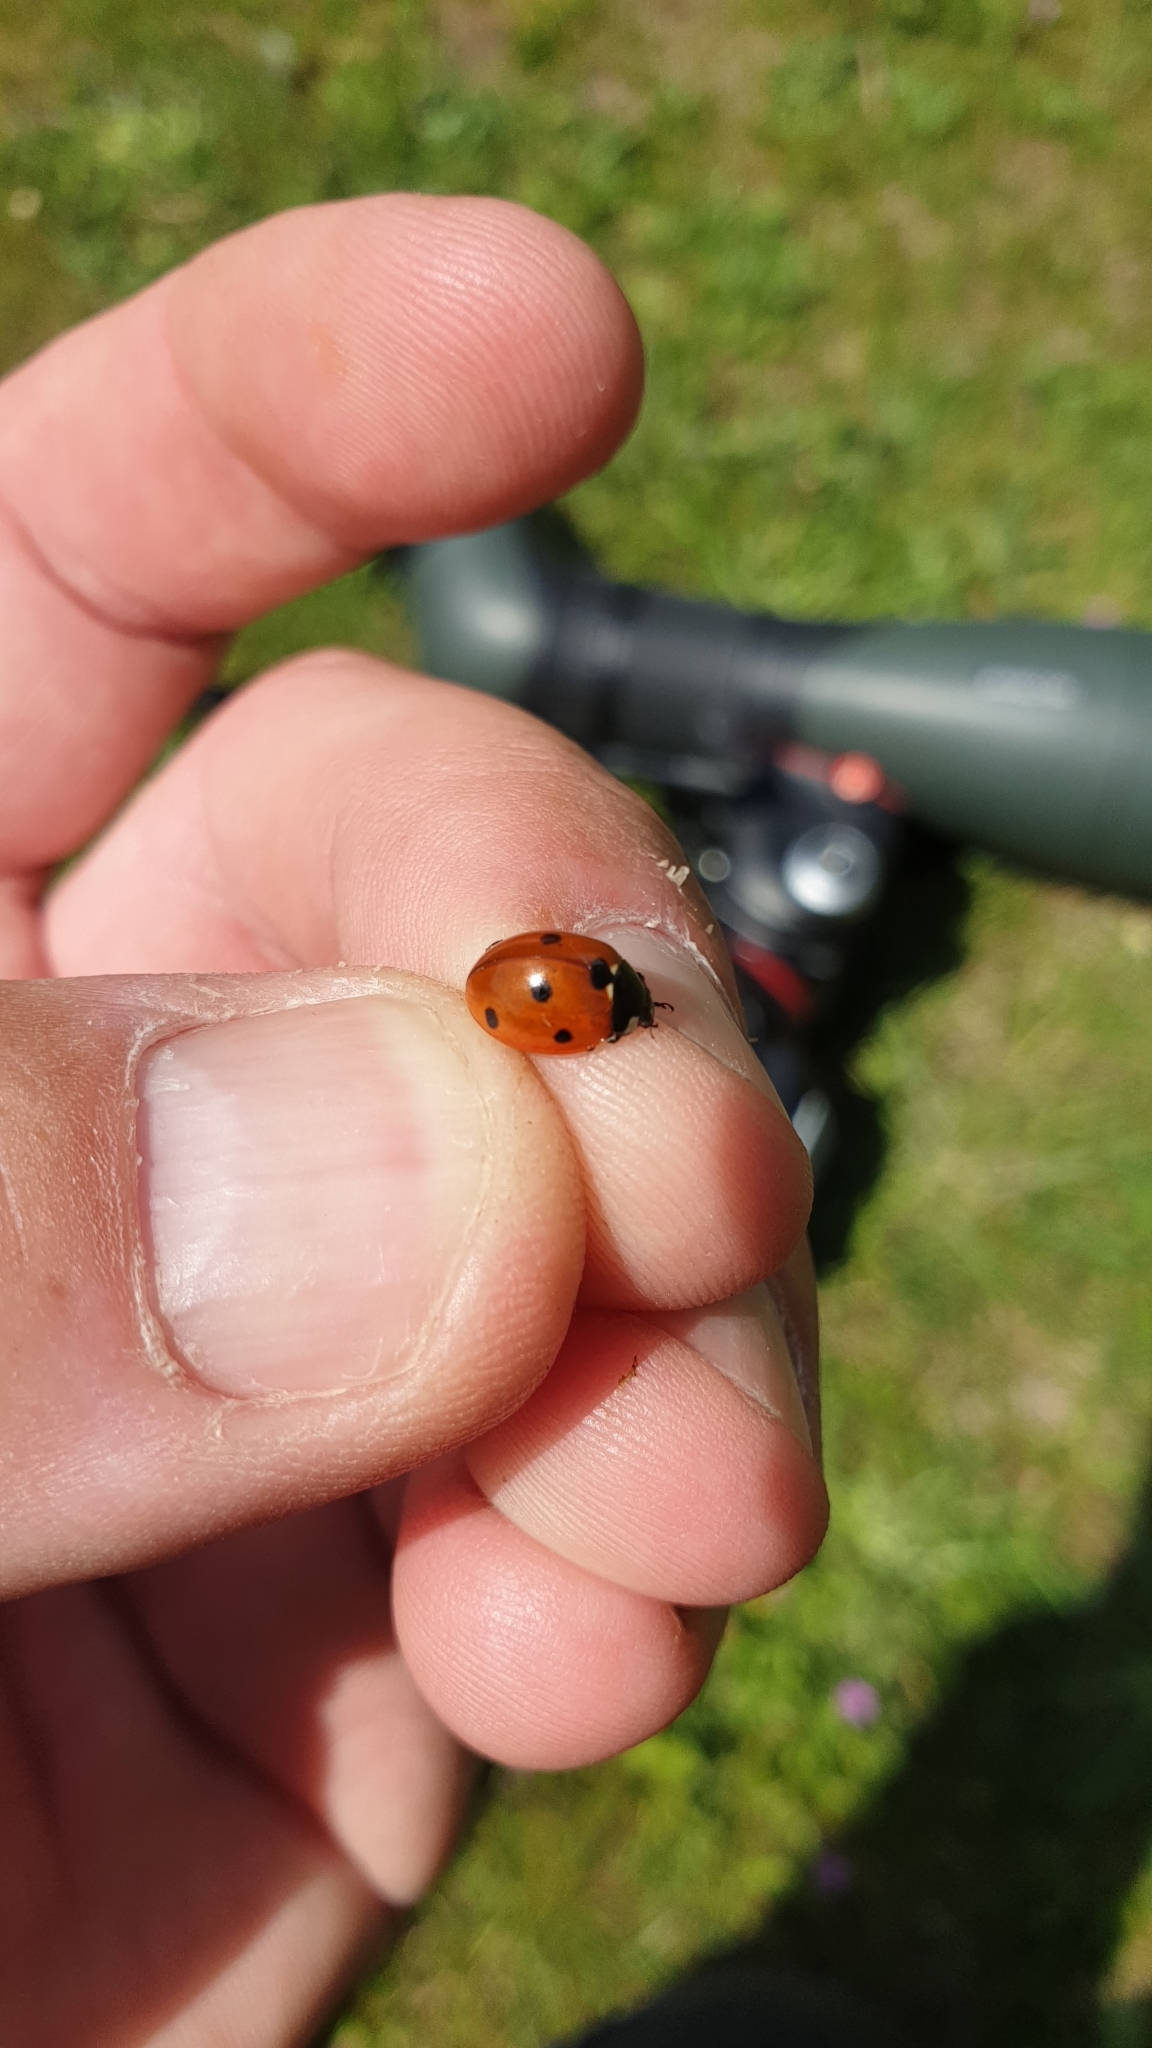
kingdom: Animalia
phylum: Arthropoda
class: Insecta
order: Coleoptera
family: Coccinellidae
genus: Coccinella
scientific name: Coccinella septempunctata
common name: Sevenspotted lady beetle
